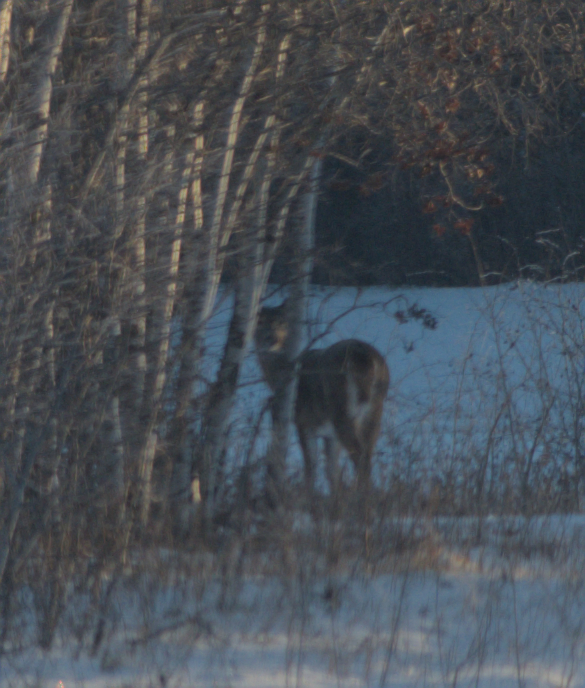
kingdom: Animalia
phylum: Chordata
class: Mammalia
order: Artiodactyla
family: Cervidae
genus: Odocoileus
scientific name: Odocoileus virginianus
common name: White-tailed deer
